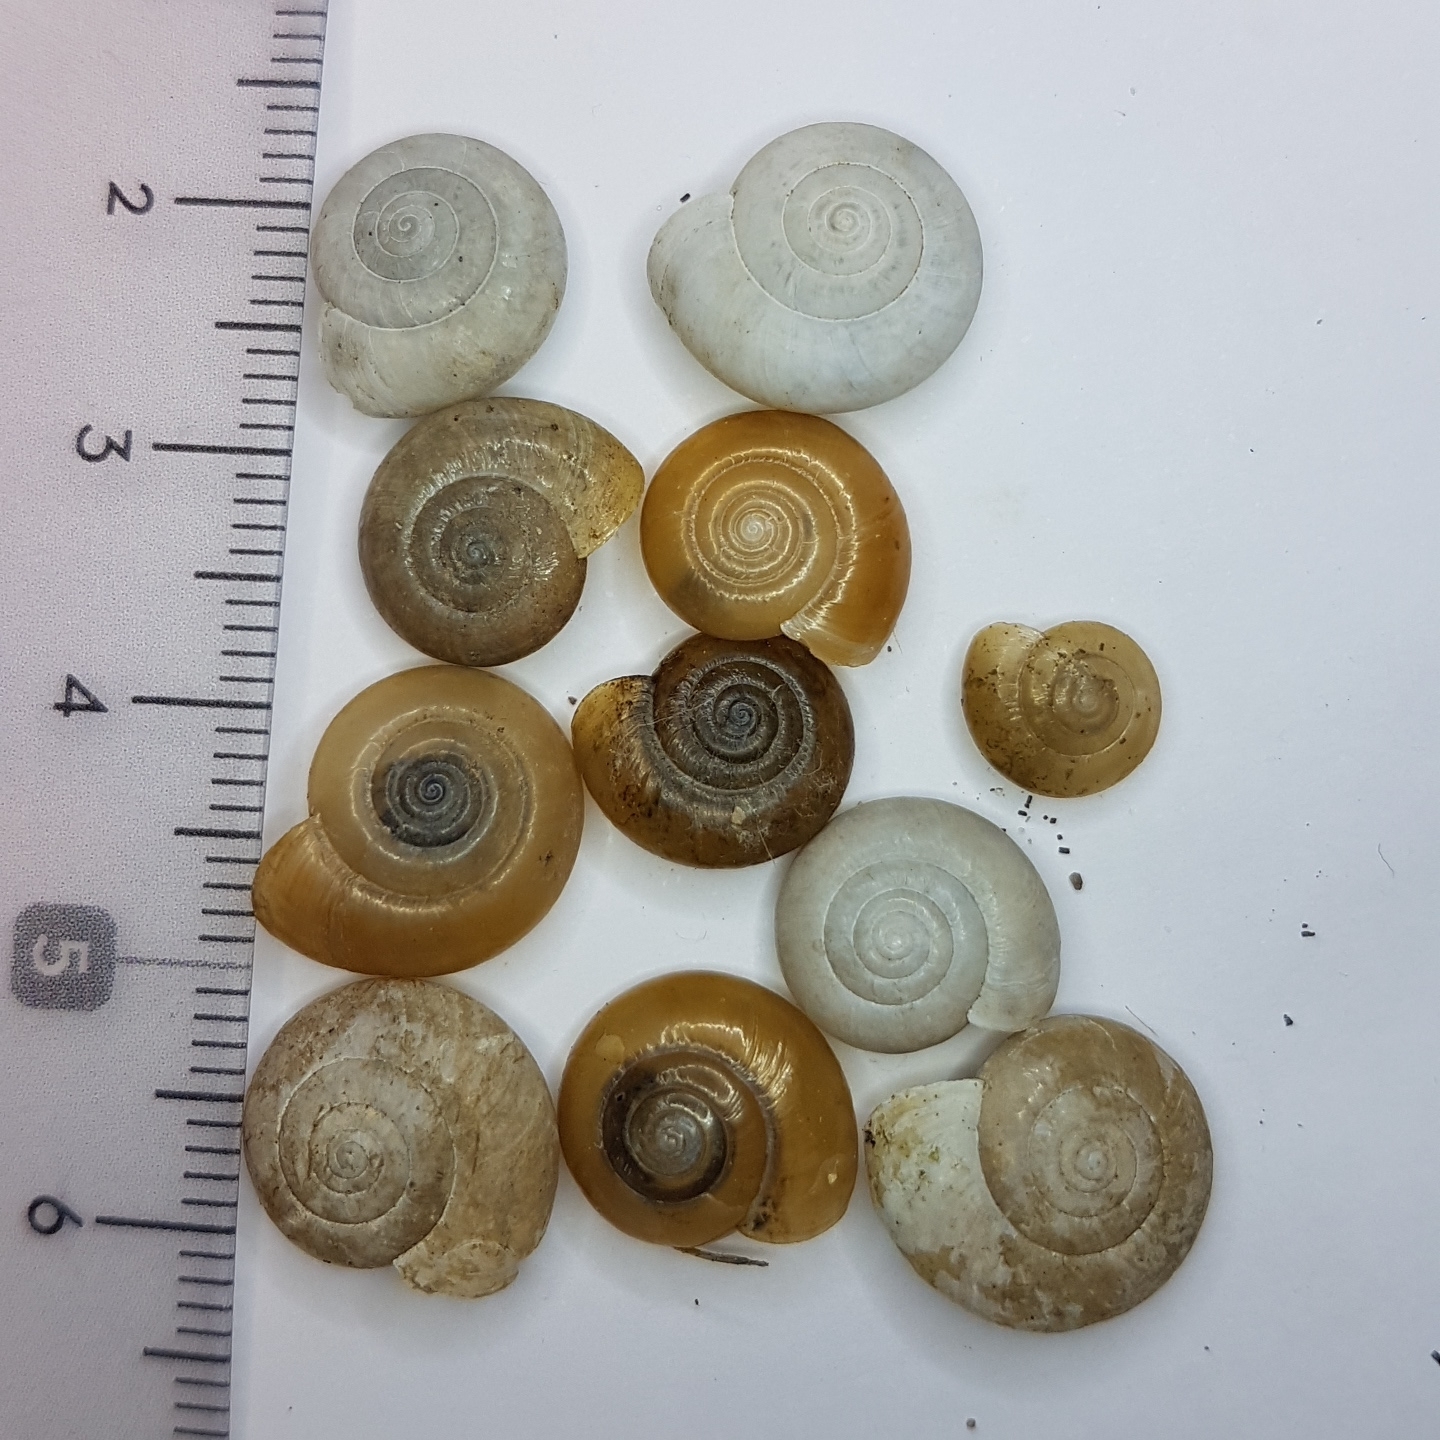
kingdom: Animalia
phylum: Mollusca
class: Gastropoda
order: Stylommatophora
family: Oxychilidae
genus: Oxychilus
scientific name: Oxychilus draparnaudi
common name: Draparnaud's glass snail
